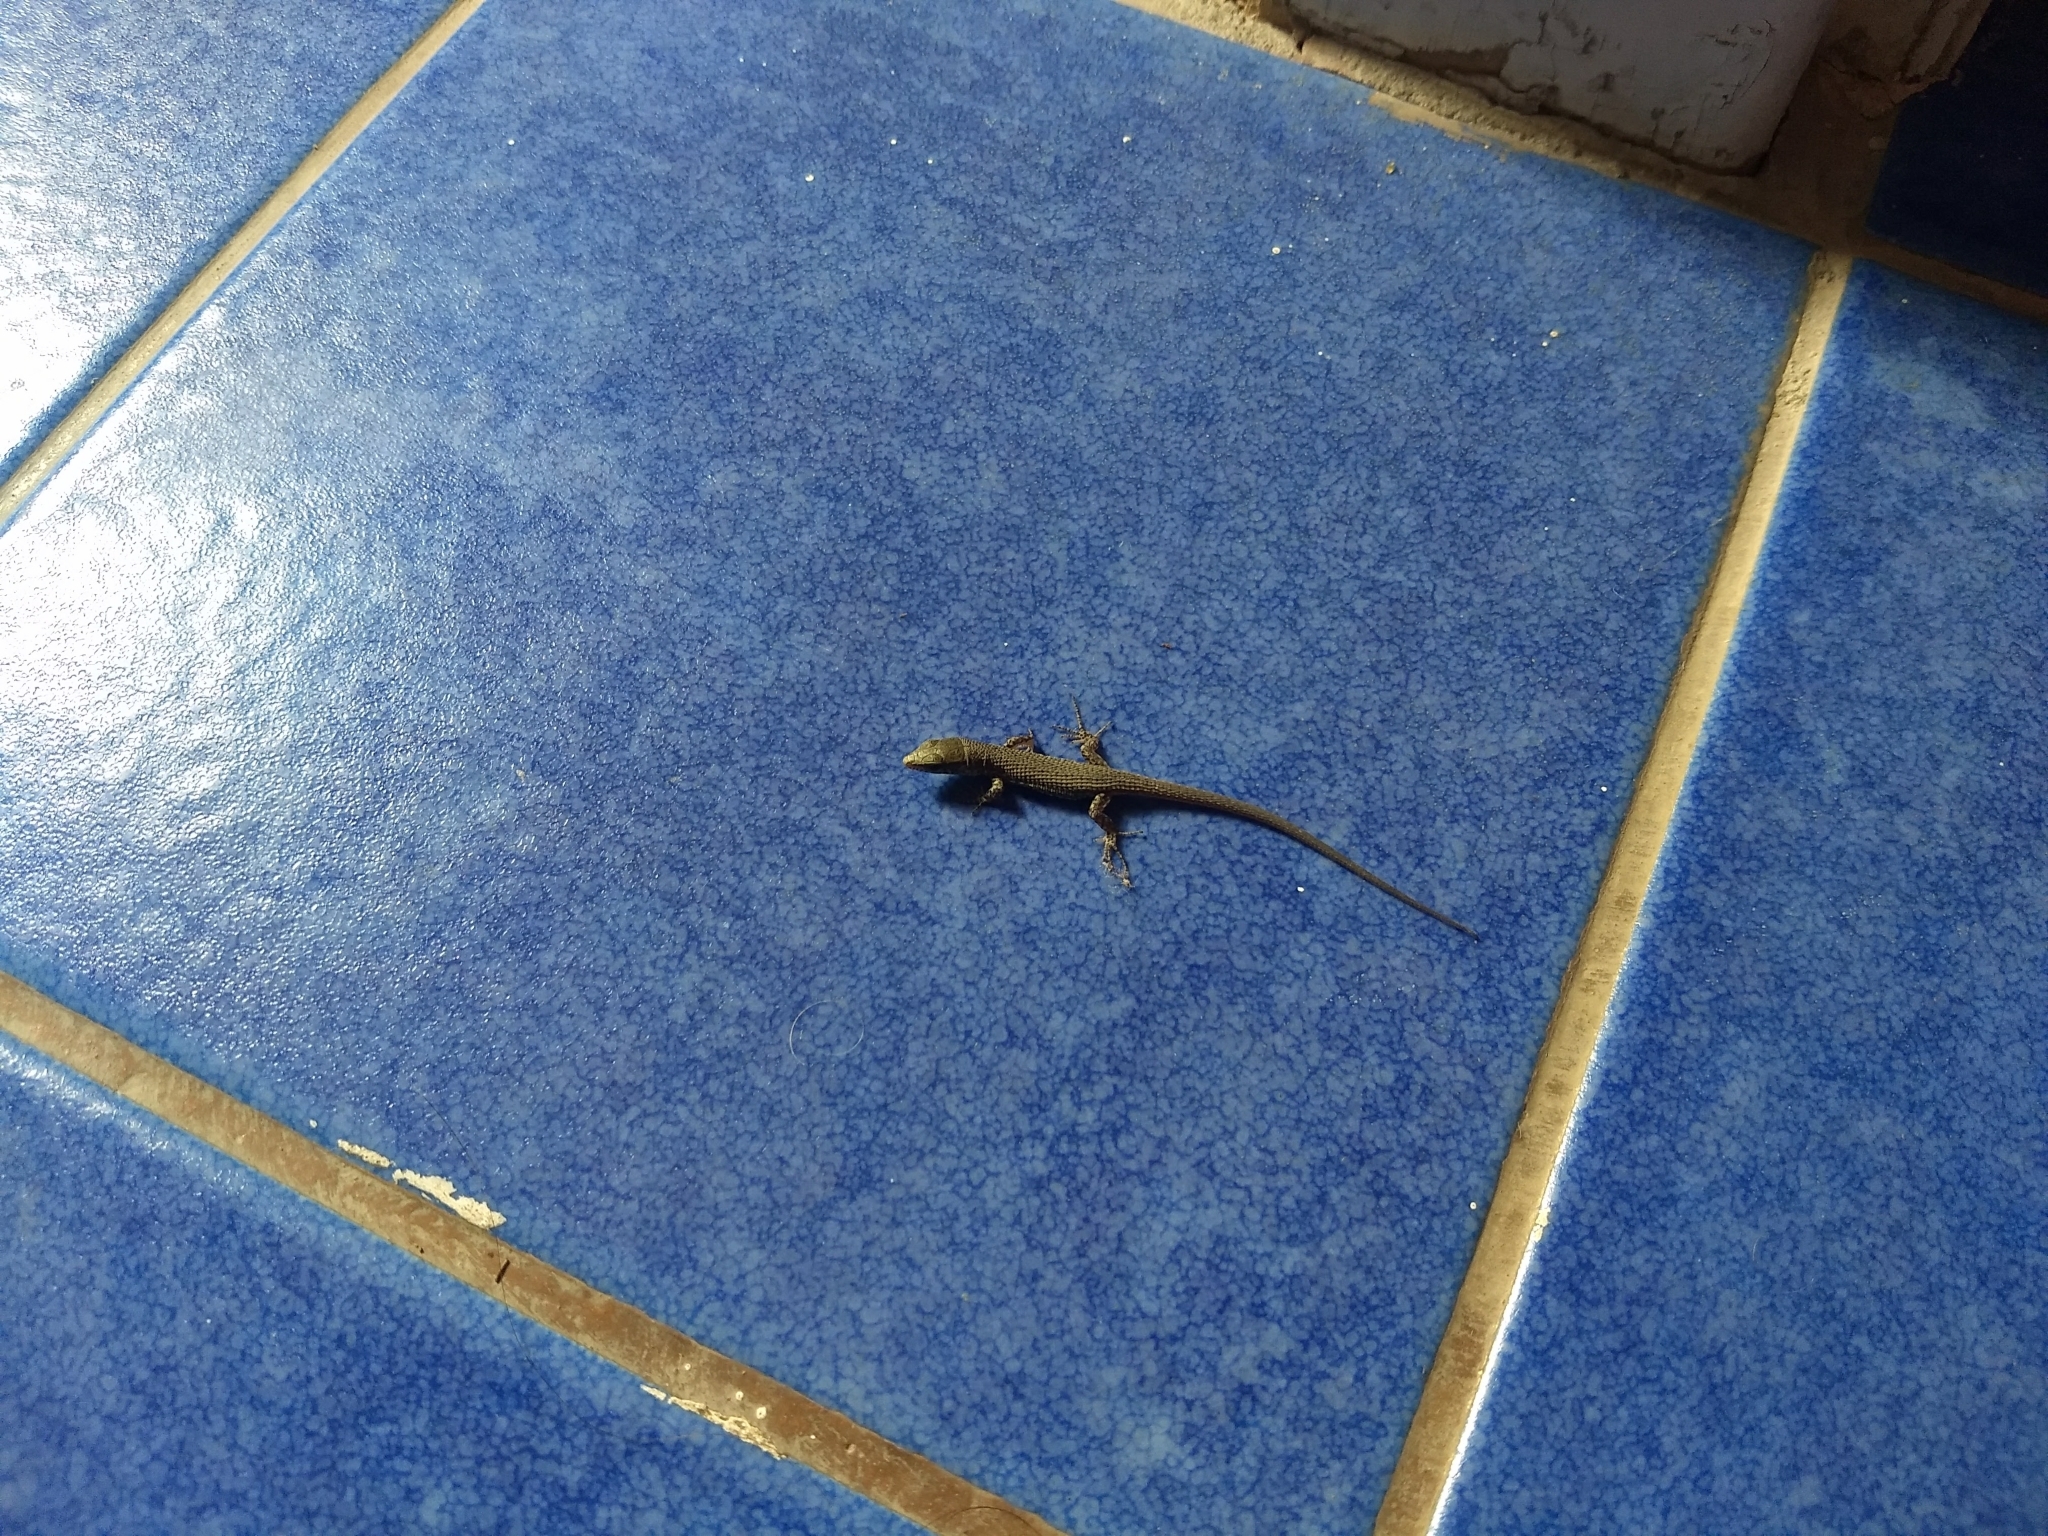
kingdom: Animalia
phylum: Chordata
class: Squamata
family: Lacertidae
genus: Algyroides
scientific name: Algyroides nigropunctatus
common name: Blue-throated keeled lizard
